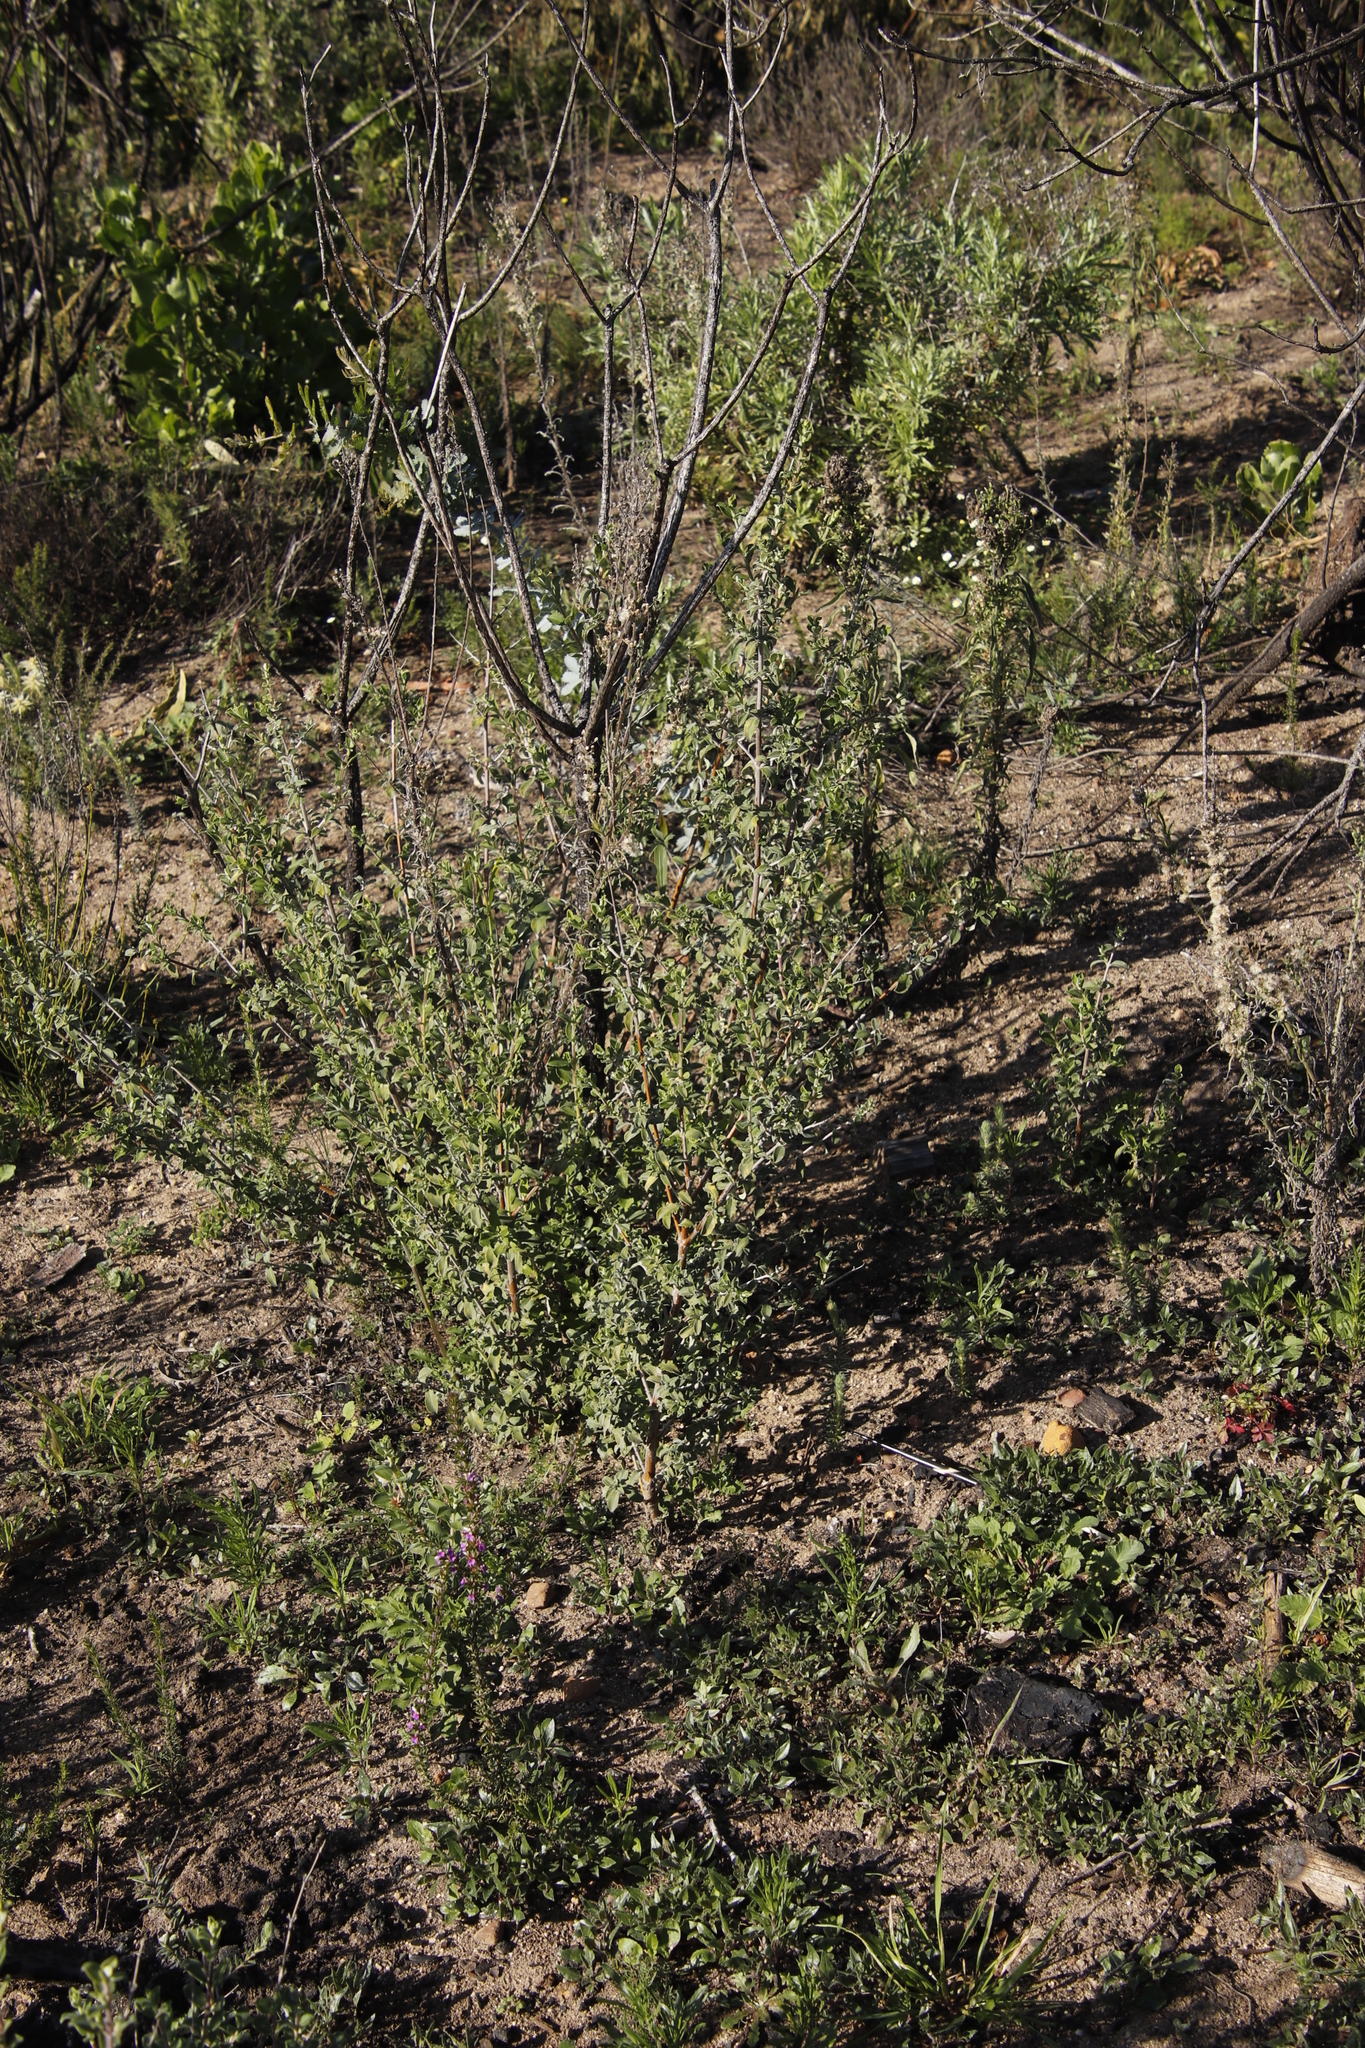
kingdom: Plantae
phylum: Tracheophyta
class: Magnoliopsida
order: Lamiales
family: Lamiaceae
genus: Salvia
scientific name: Salvia africana
